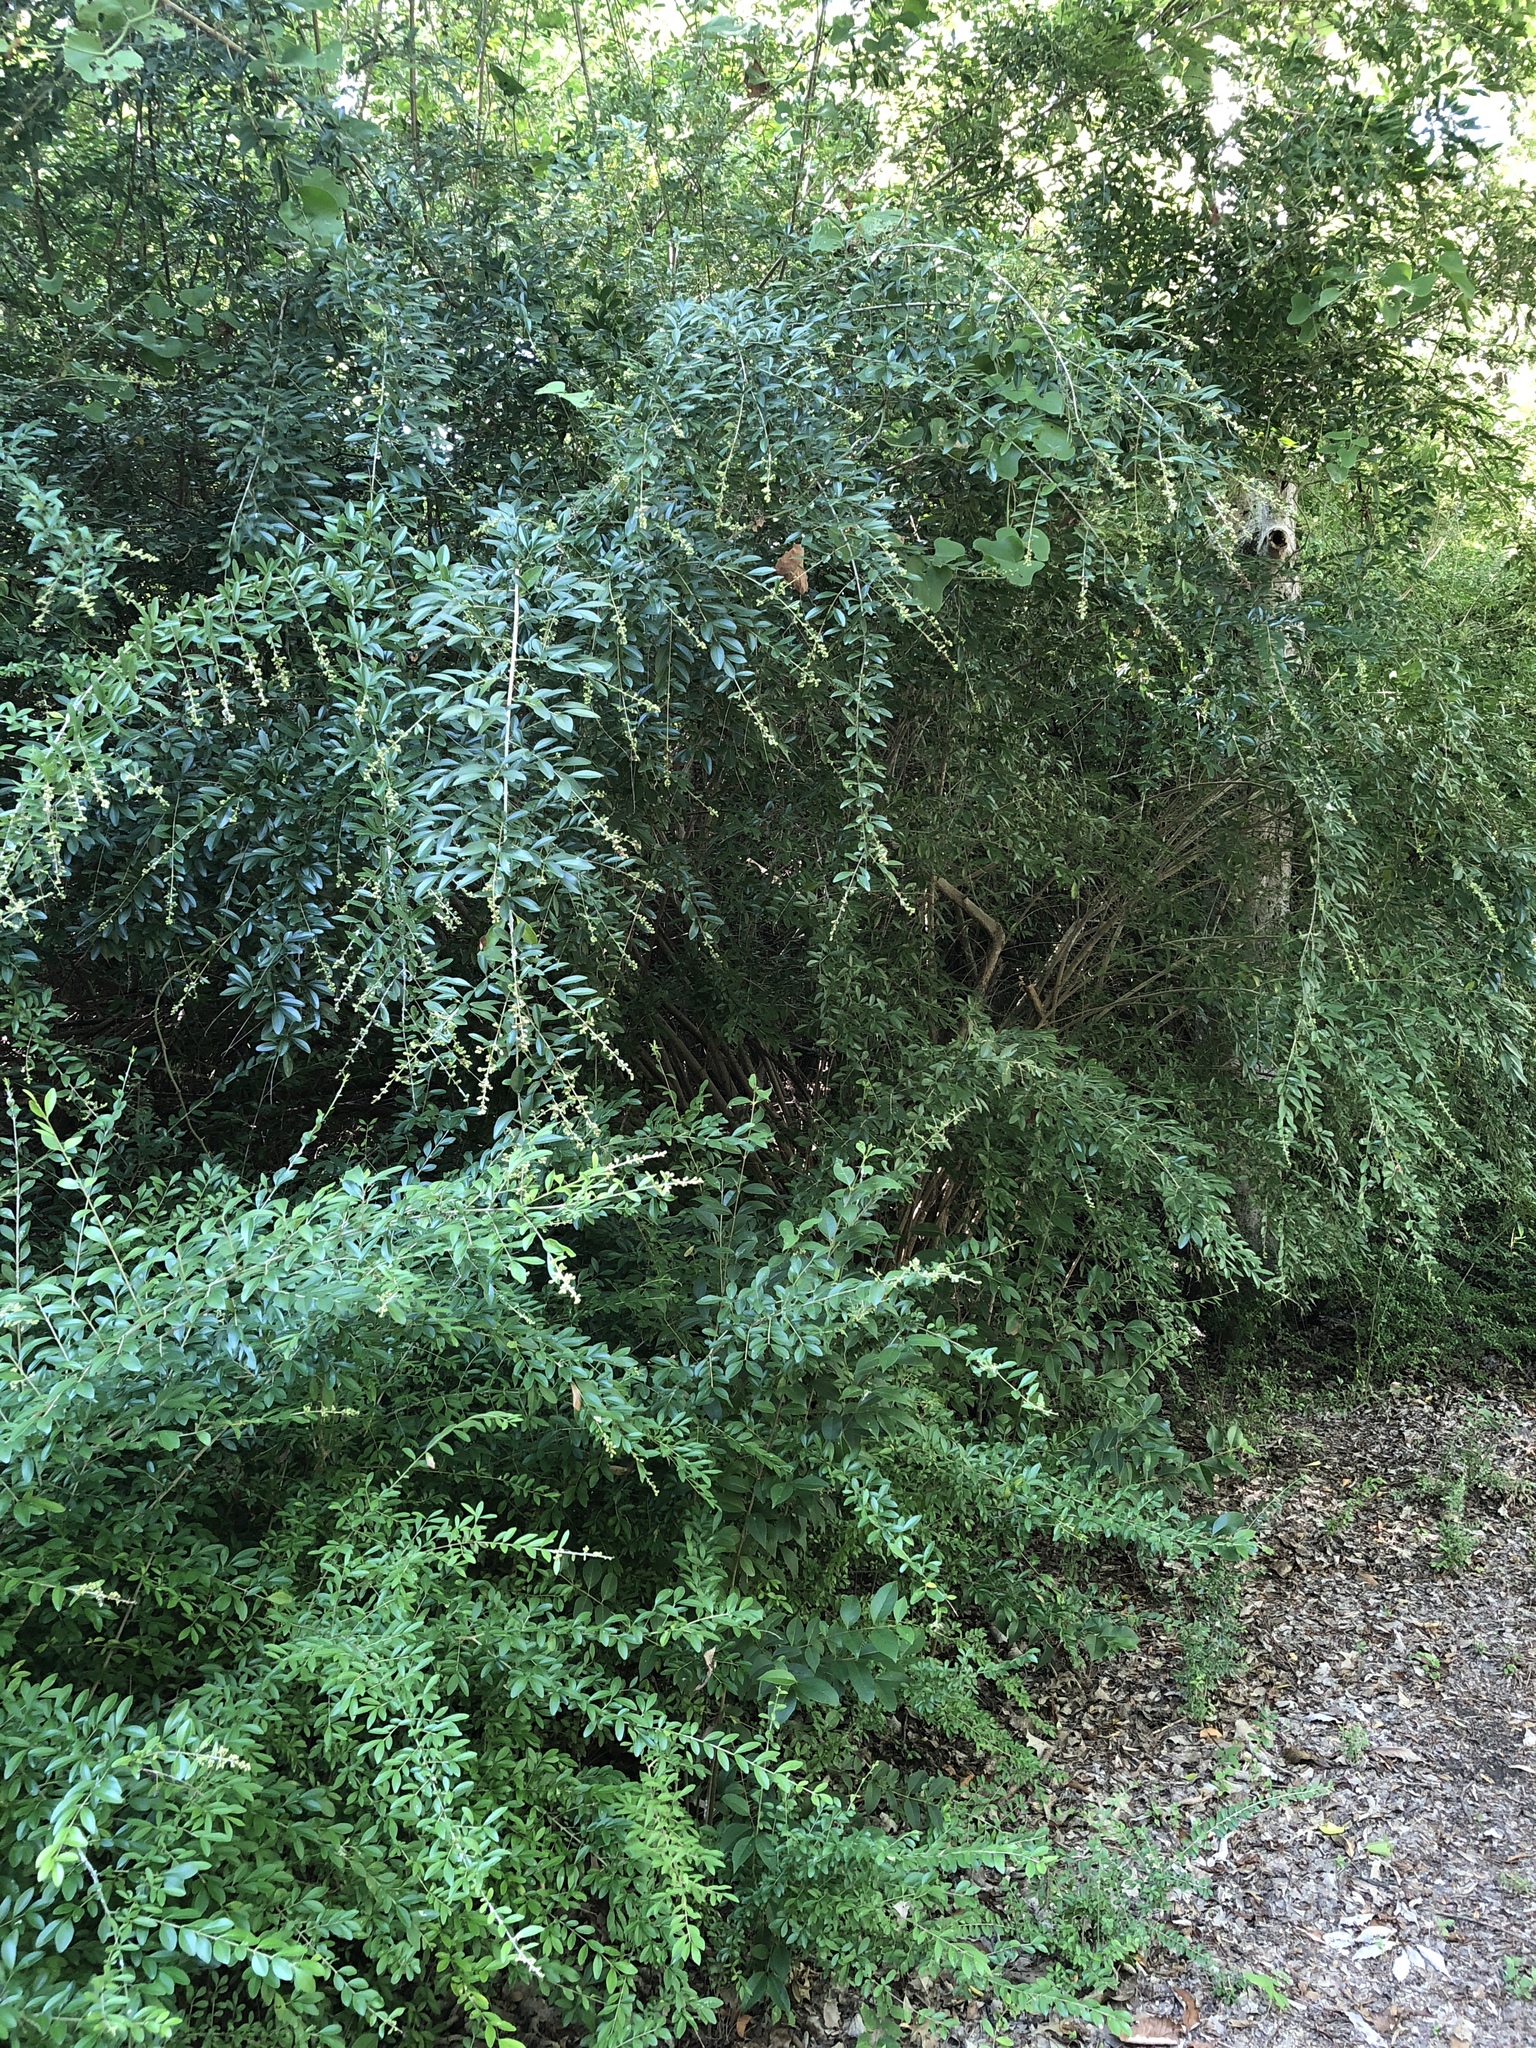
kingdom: Plantae
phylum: Tracheophyta
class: Magnoliopsida
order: Lamiales
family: Oleaceae
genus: Ligustrum
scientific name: Ligustrum quihoui
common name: Waxyleaf privet
